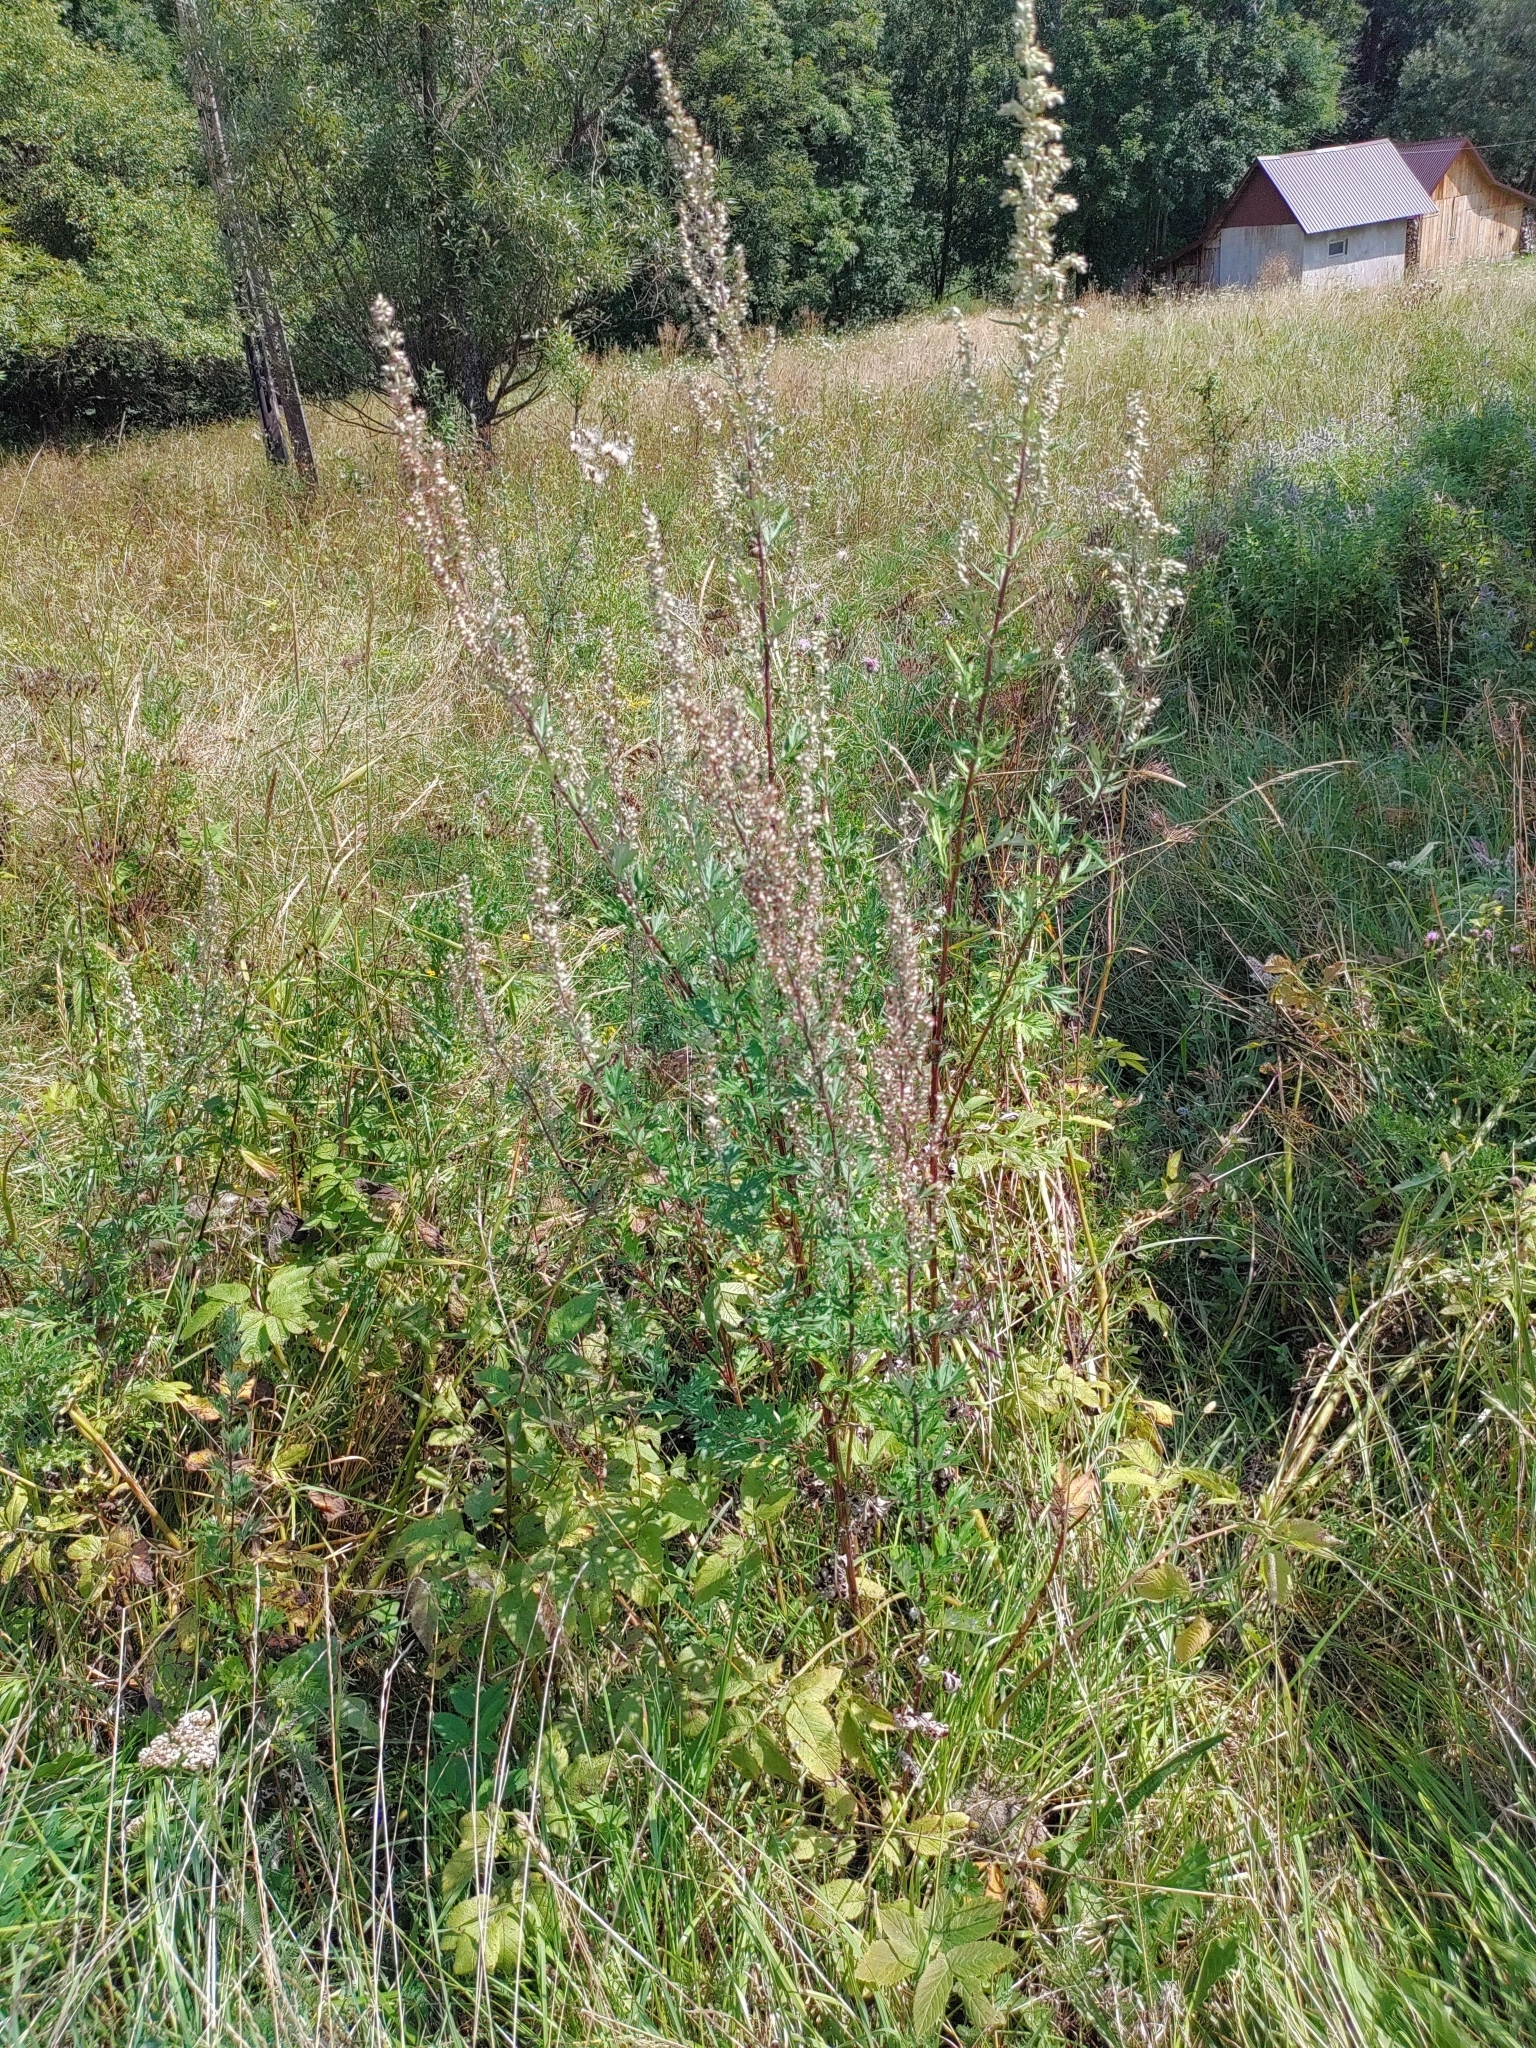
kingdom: Plantae
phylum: Tracheophyta
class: Magnoliopsida
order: Asterales
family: Asteraceae
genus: Artemisia
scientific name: Artemisia vulgaris
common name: Mugwort
